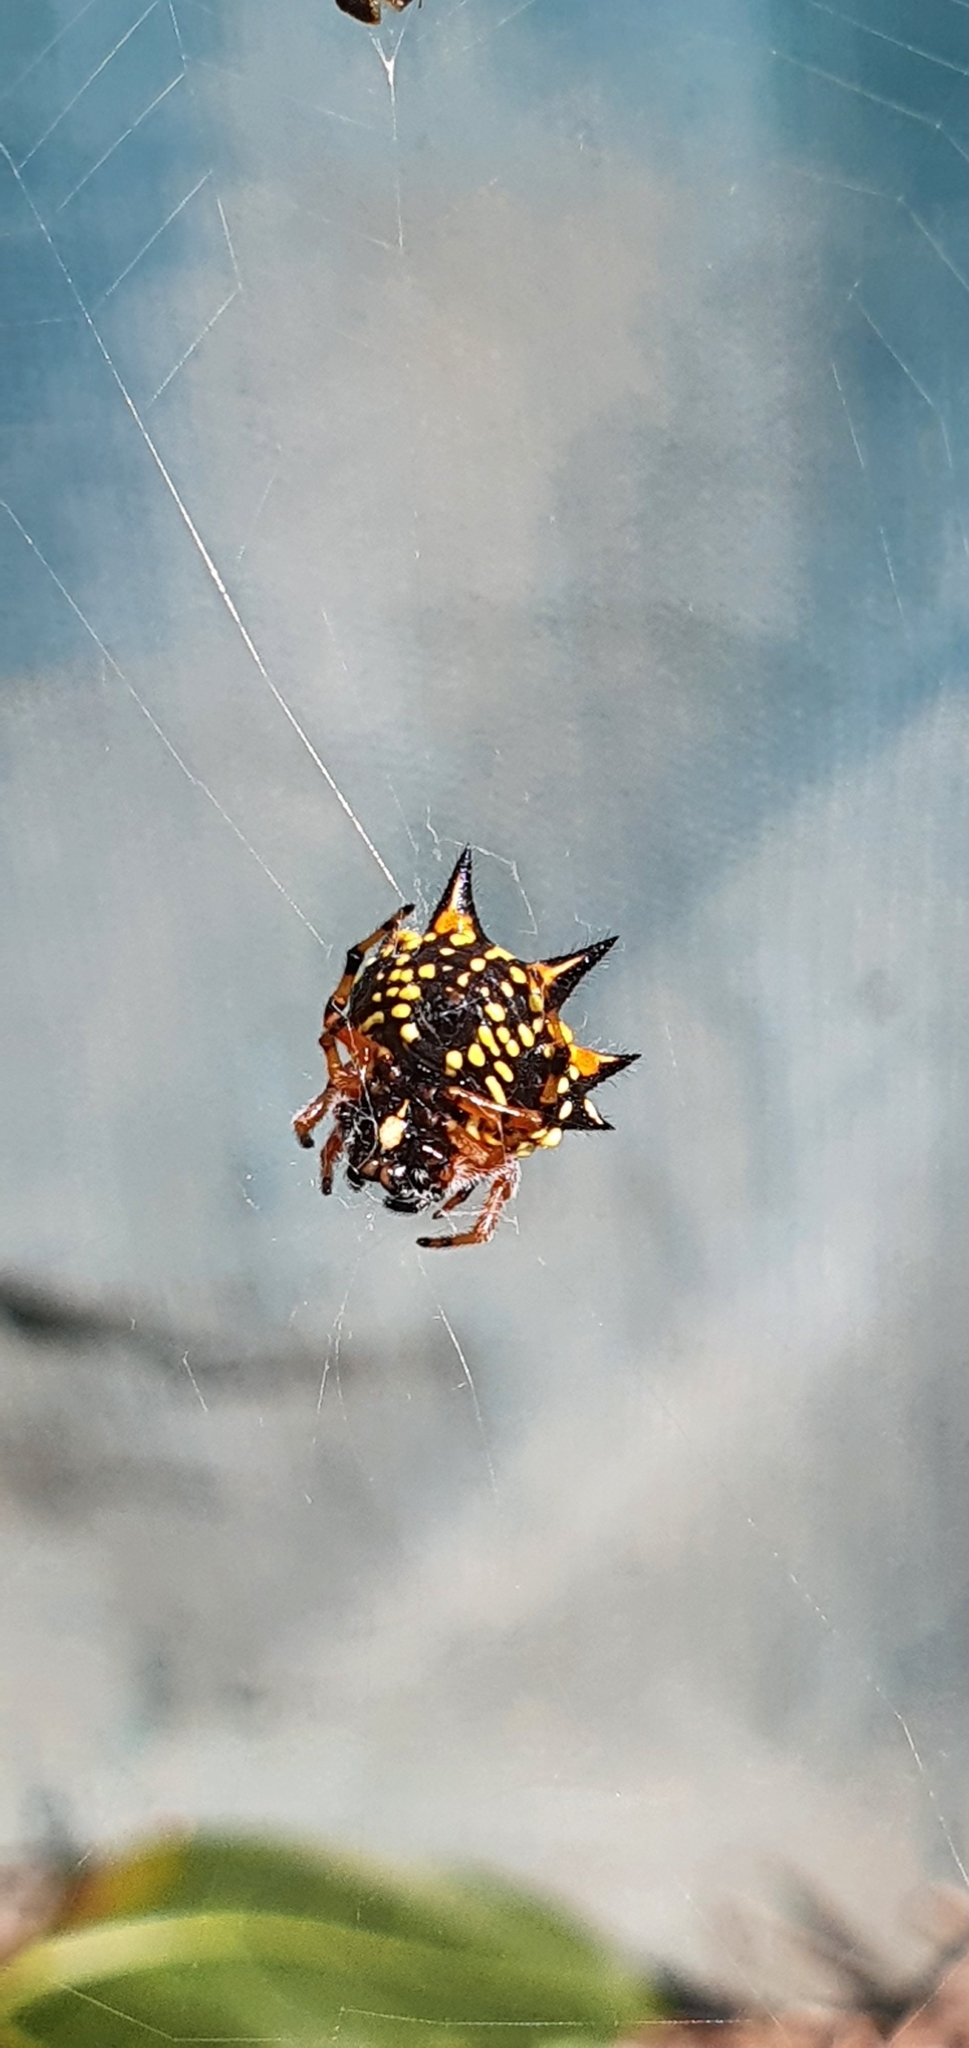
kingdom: Animalia
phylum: Arthropoda
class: Arachnida
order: Araneae
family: Araneidae
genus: Austracantha
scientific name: Austracantha minax
